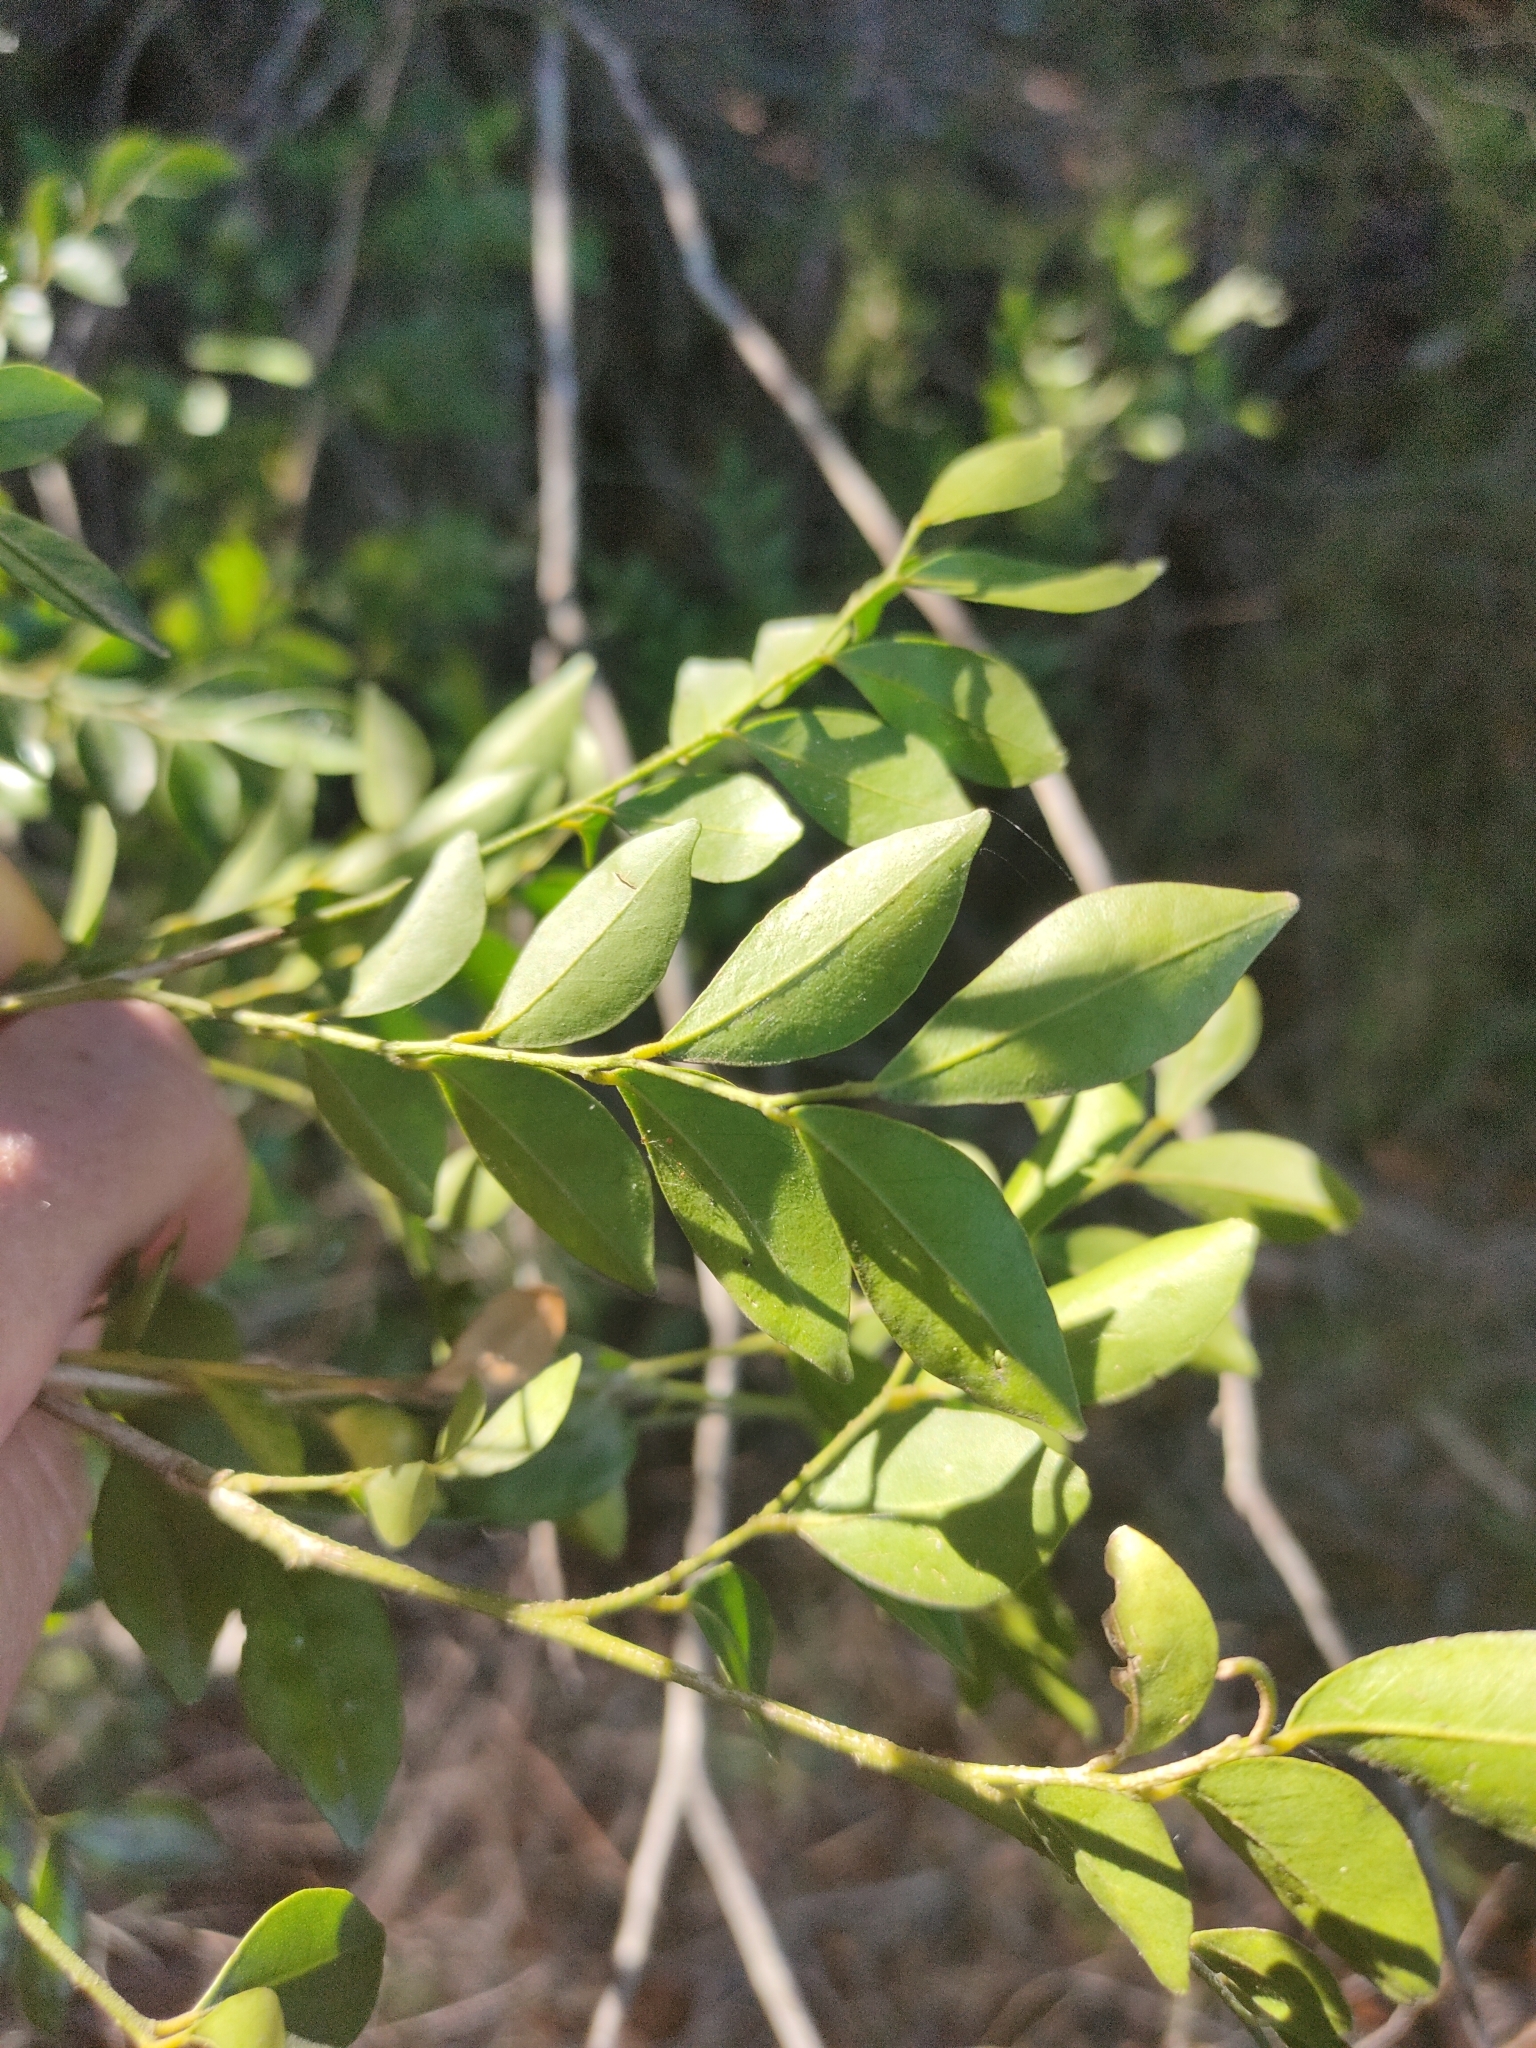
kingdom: Plantae
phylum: Tracheophyta
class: Magnoliopsida
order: Sapindales
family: Rutaceae
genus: Murraya
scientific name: Murraya paniculata
